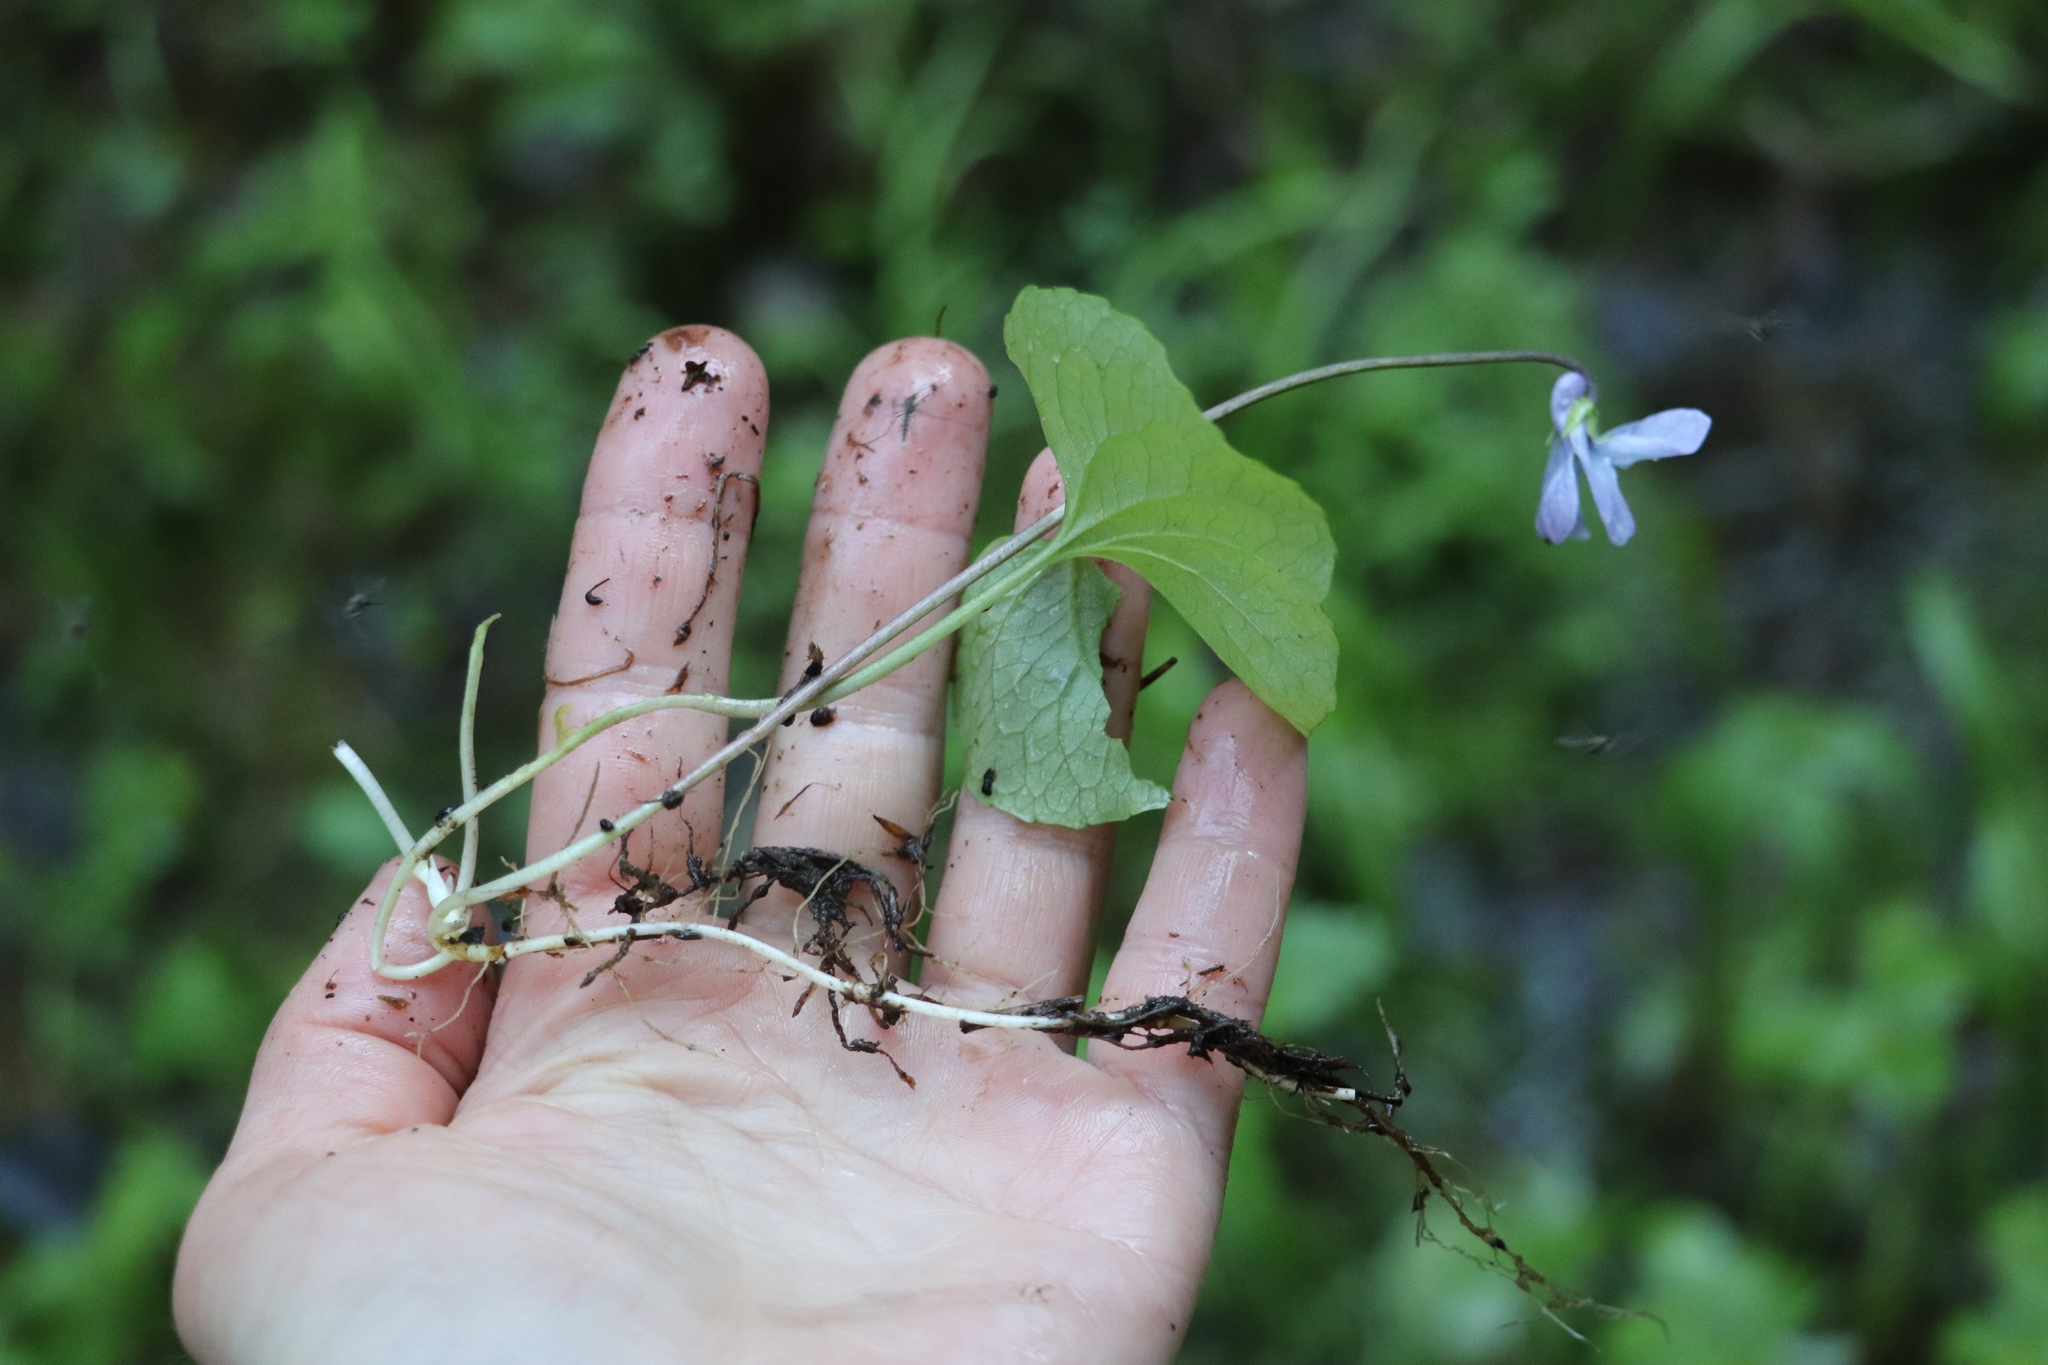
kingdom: Plantae
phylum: Tracheophyta
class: Magnoliopsida
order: Malpighiales
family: Violaceae
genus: Viola
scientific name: Viola epipsila
